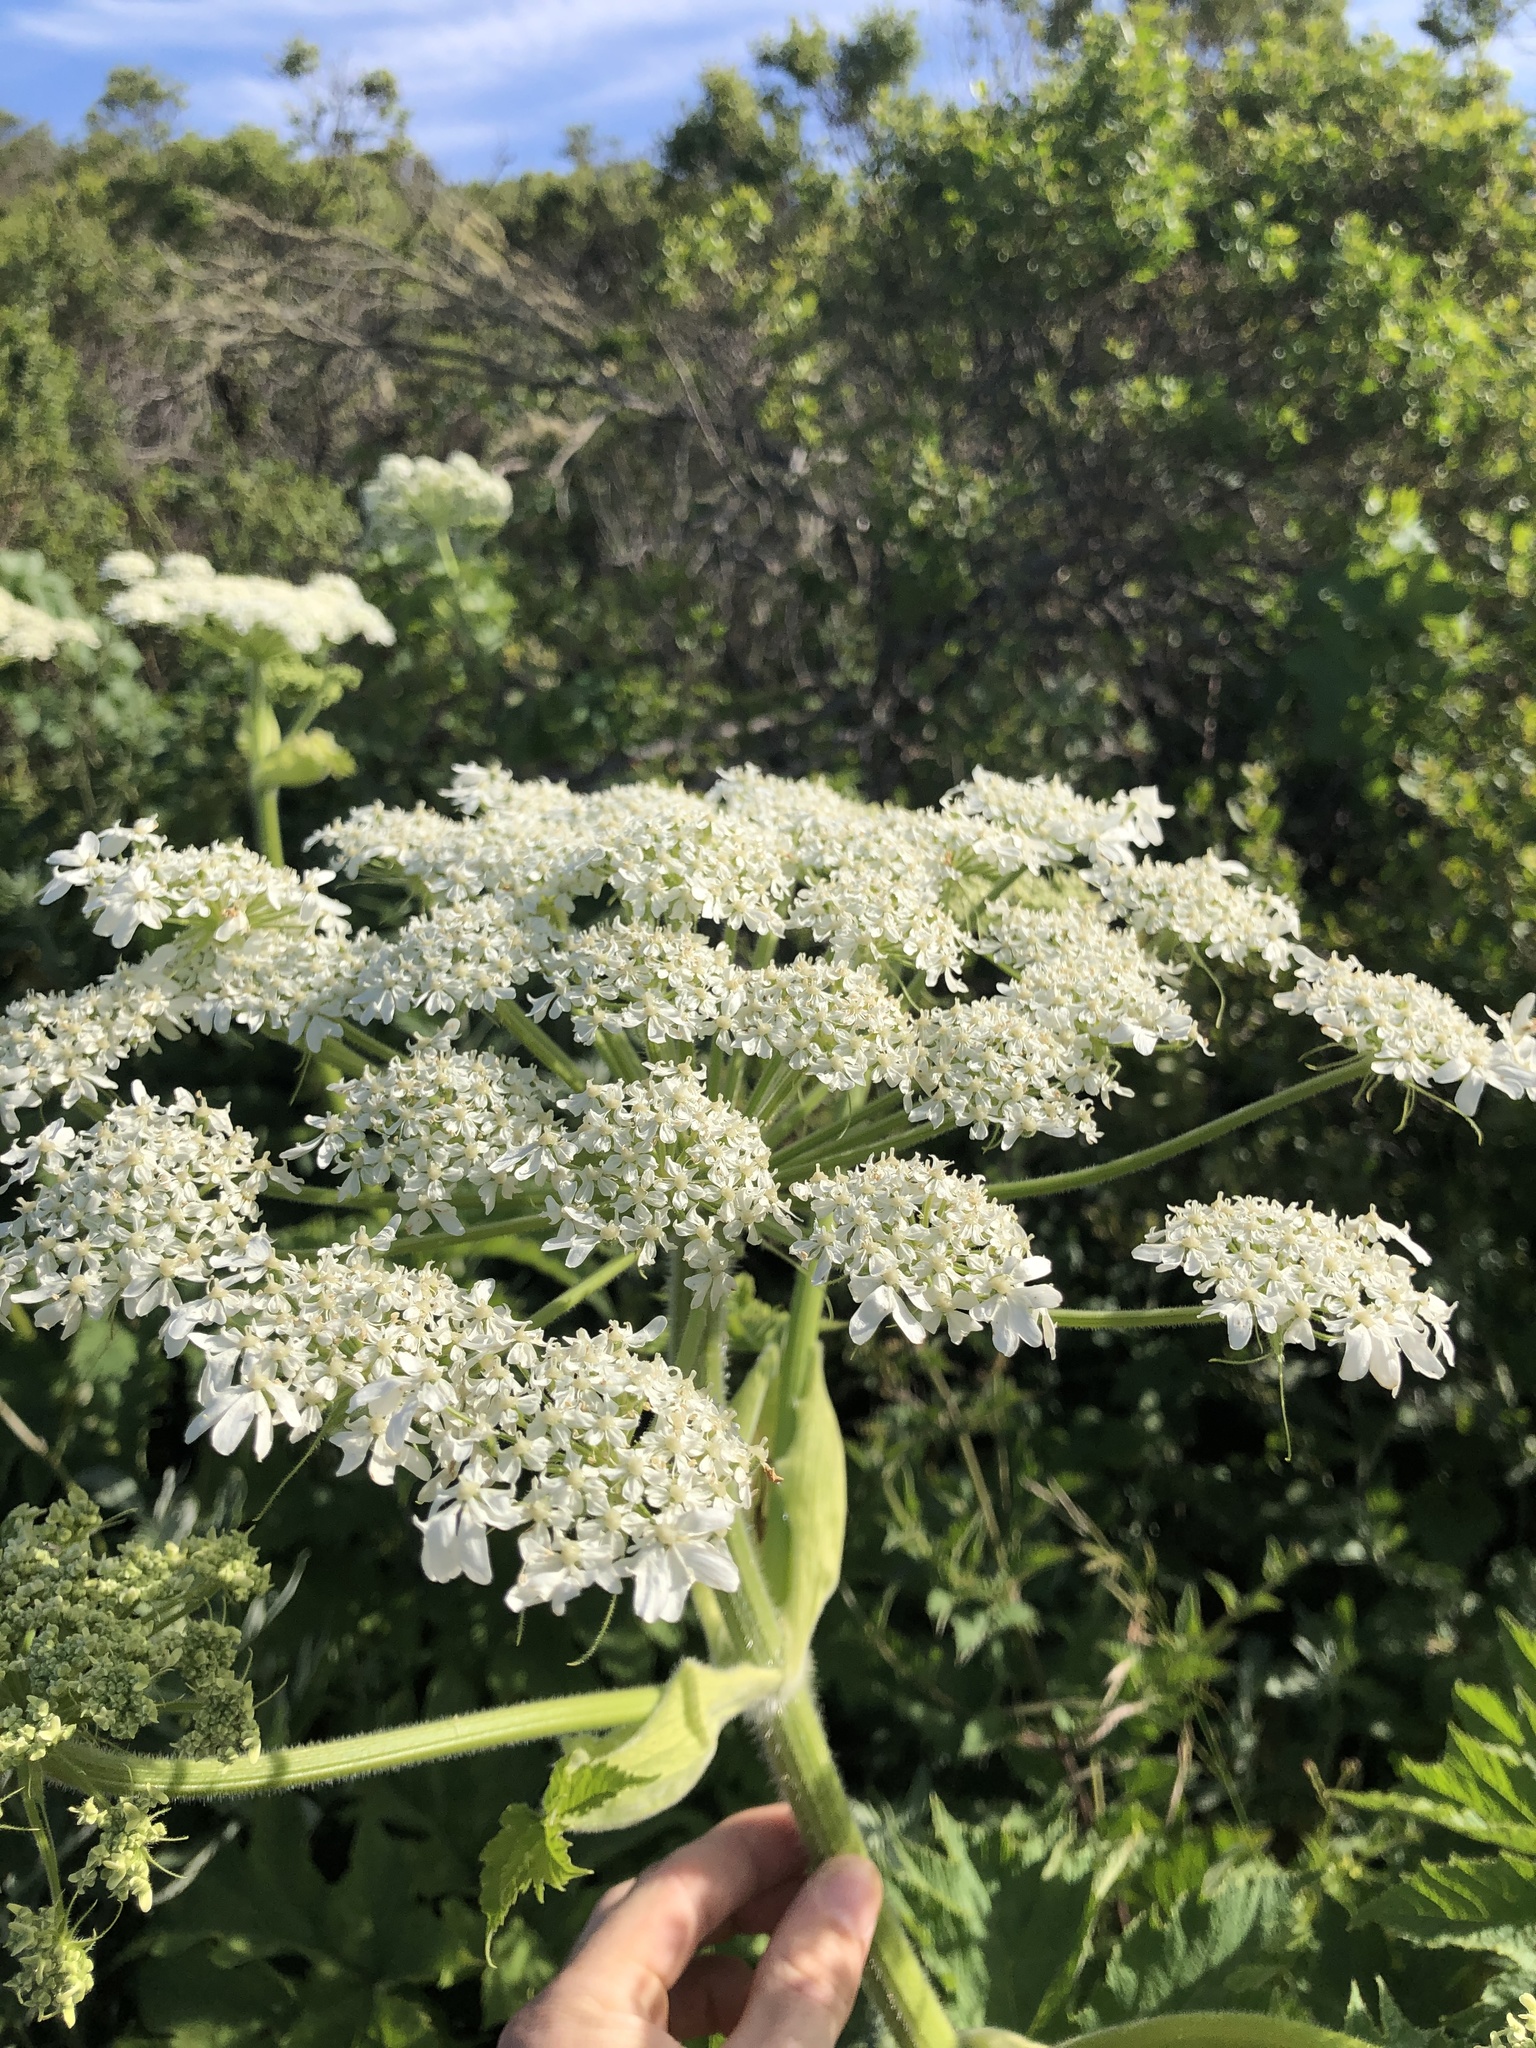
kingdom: Plantae
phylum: Tracheophyta
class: Magnoliopsida
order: Apiales
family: Apiaceae
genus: Heracleum
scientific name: Heracleum maximum
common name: American cow parsnip
